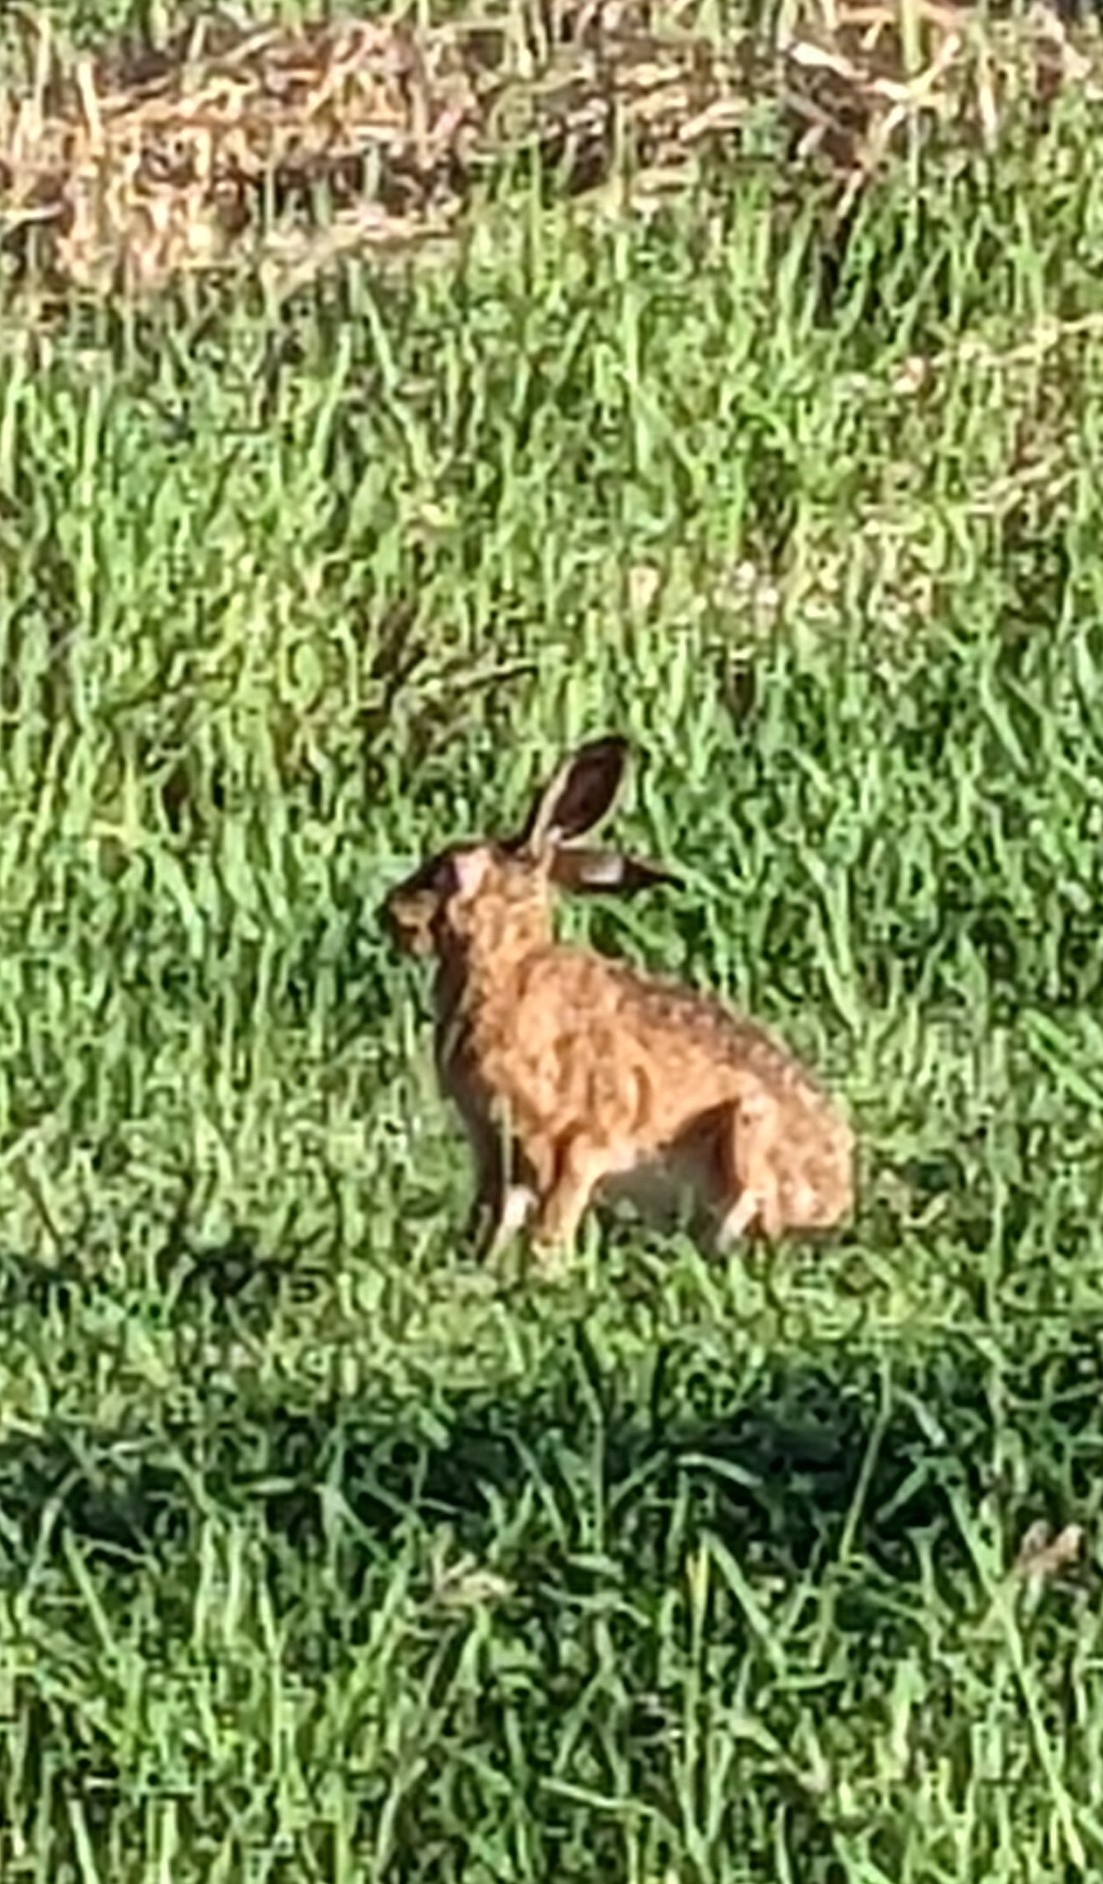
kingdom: Animalia
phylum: Chordata
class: Mammalia
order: Lagomorpha
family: Leporidae
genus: Lepus
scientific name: Lepus europaeus
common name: European hare
